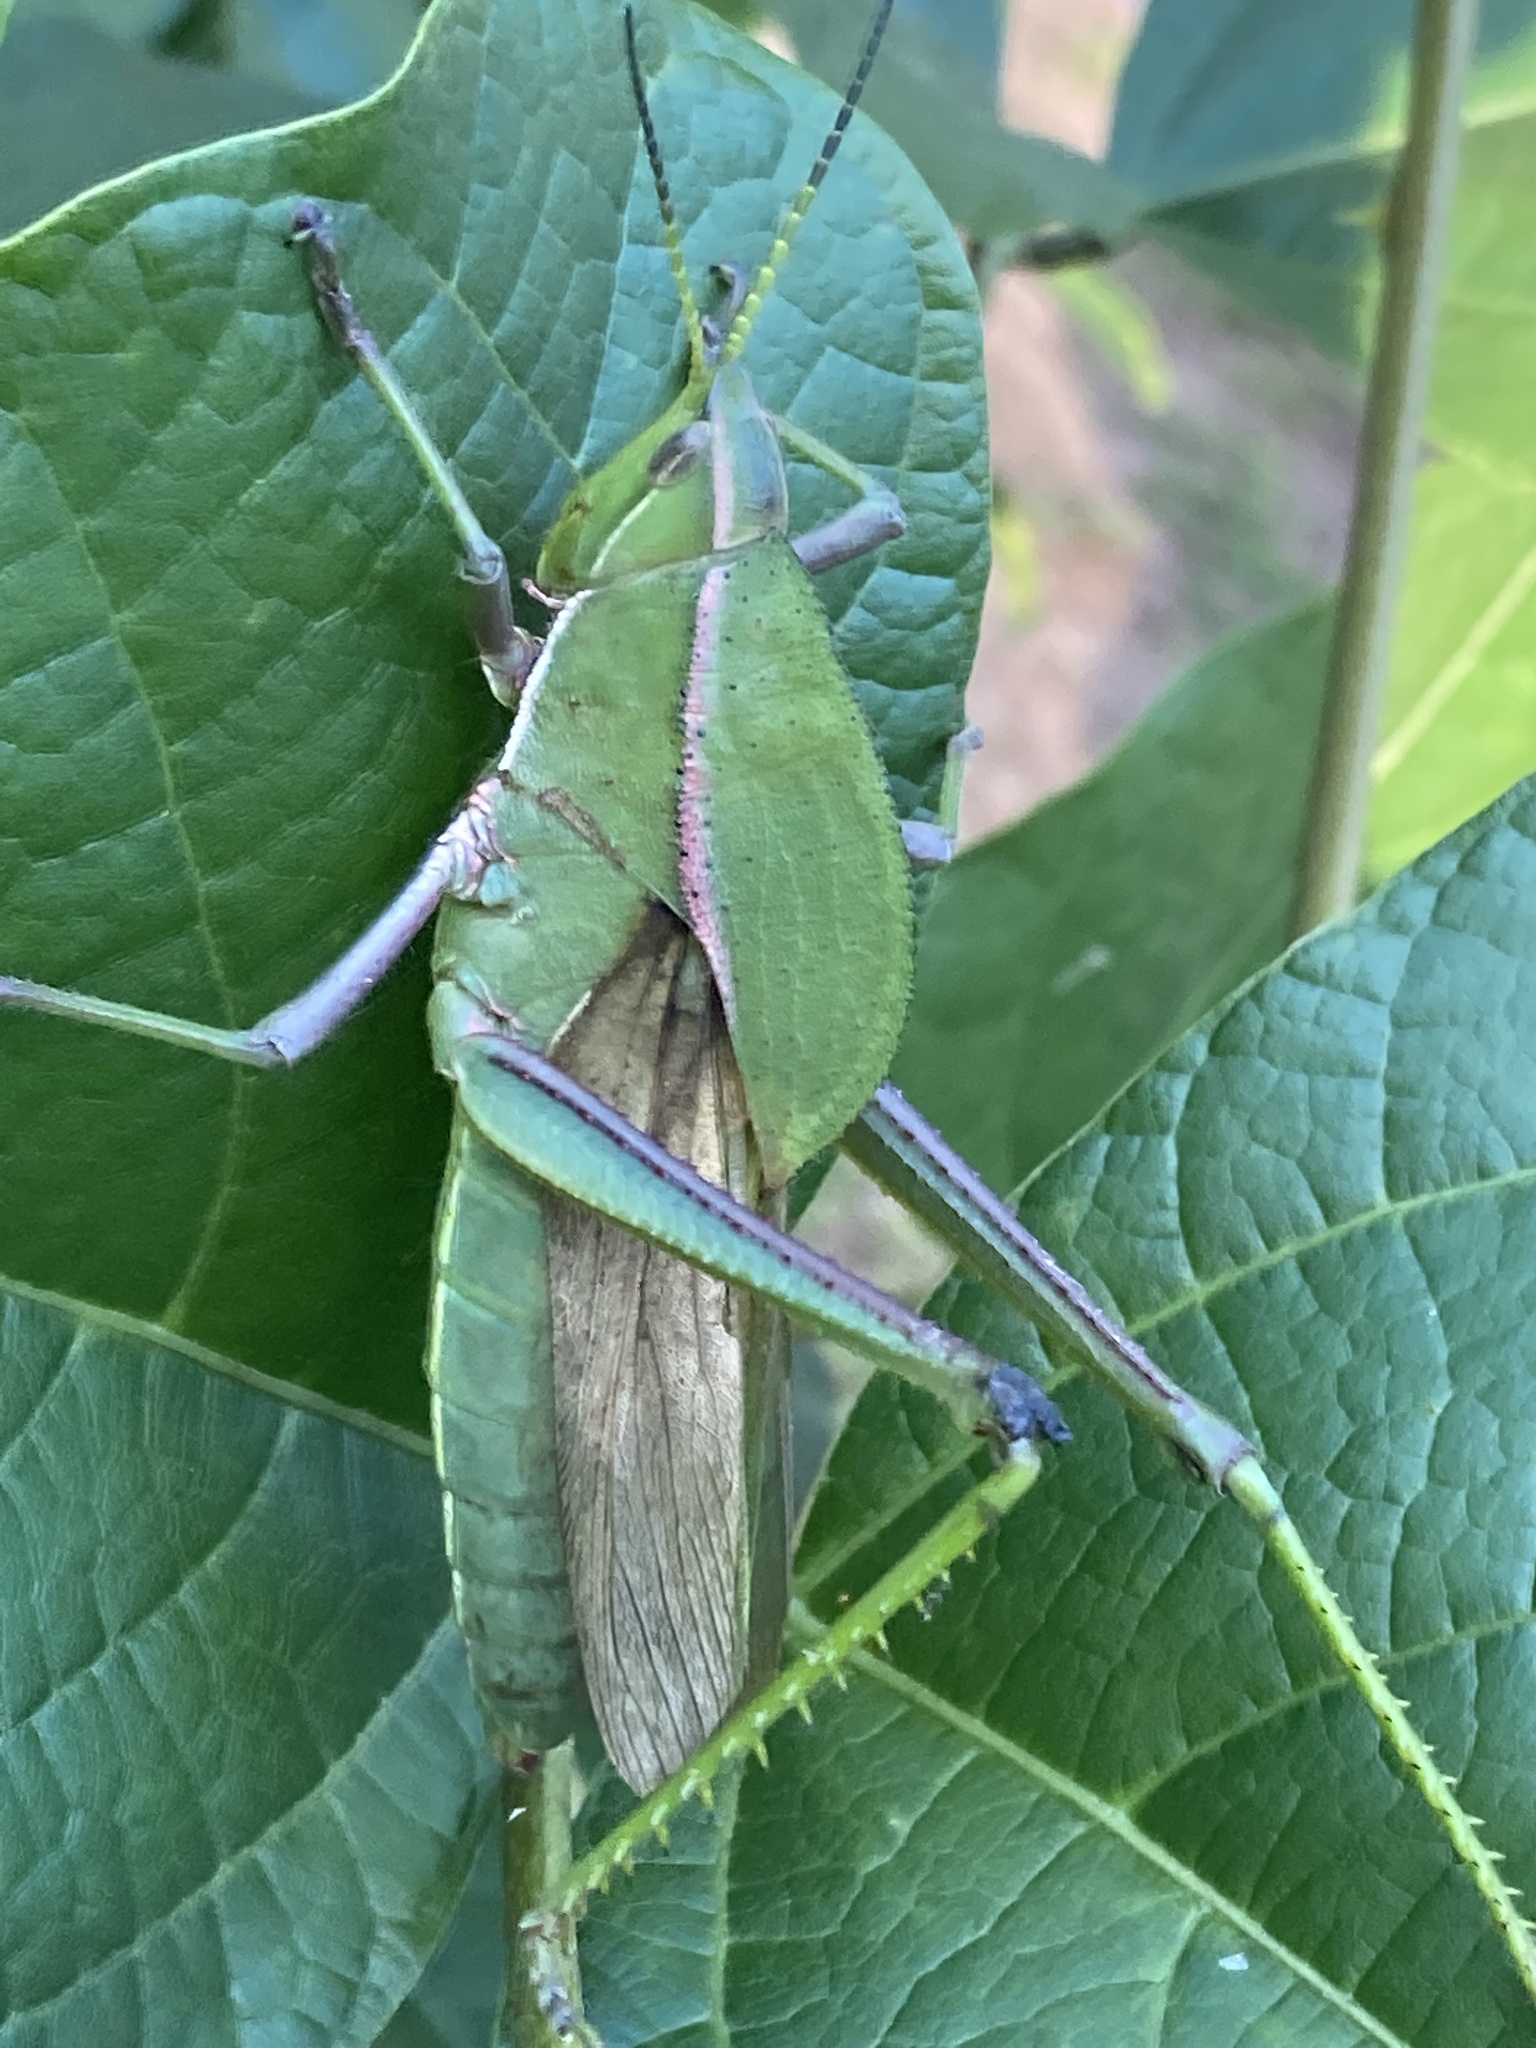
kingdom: Animalia
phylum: Arthropoda
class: Insecta
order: Orthoptera
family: Romaleidae
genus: Prionolopha
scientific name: Prionolopha serrata
